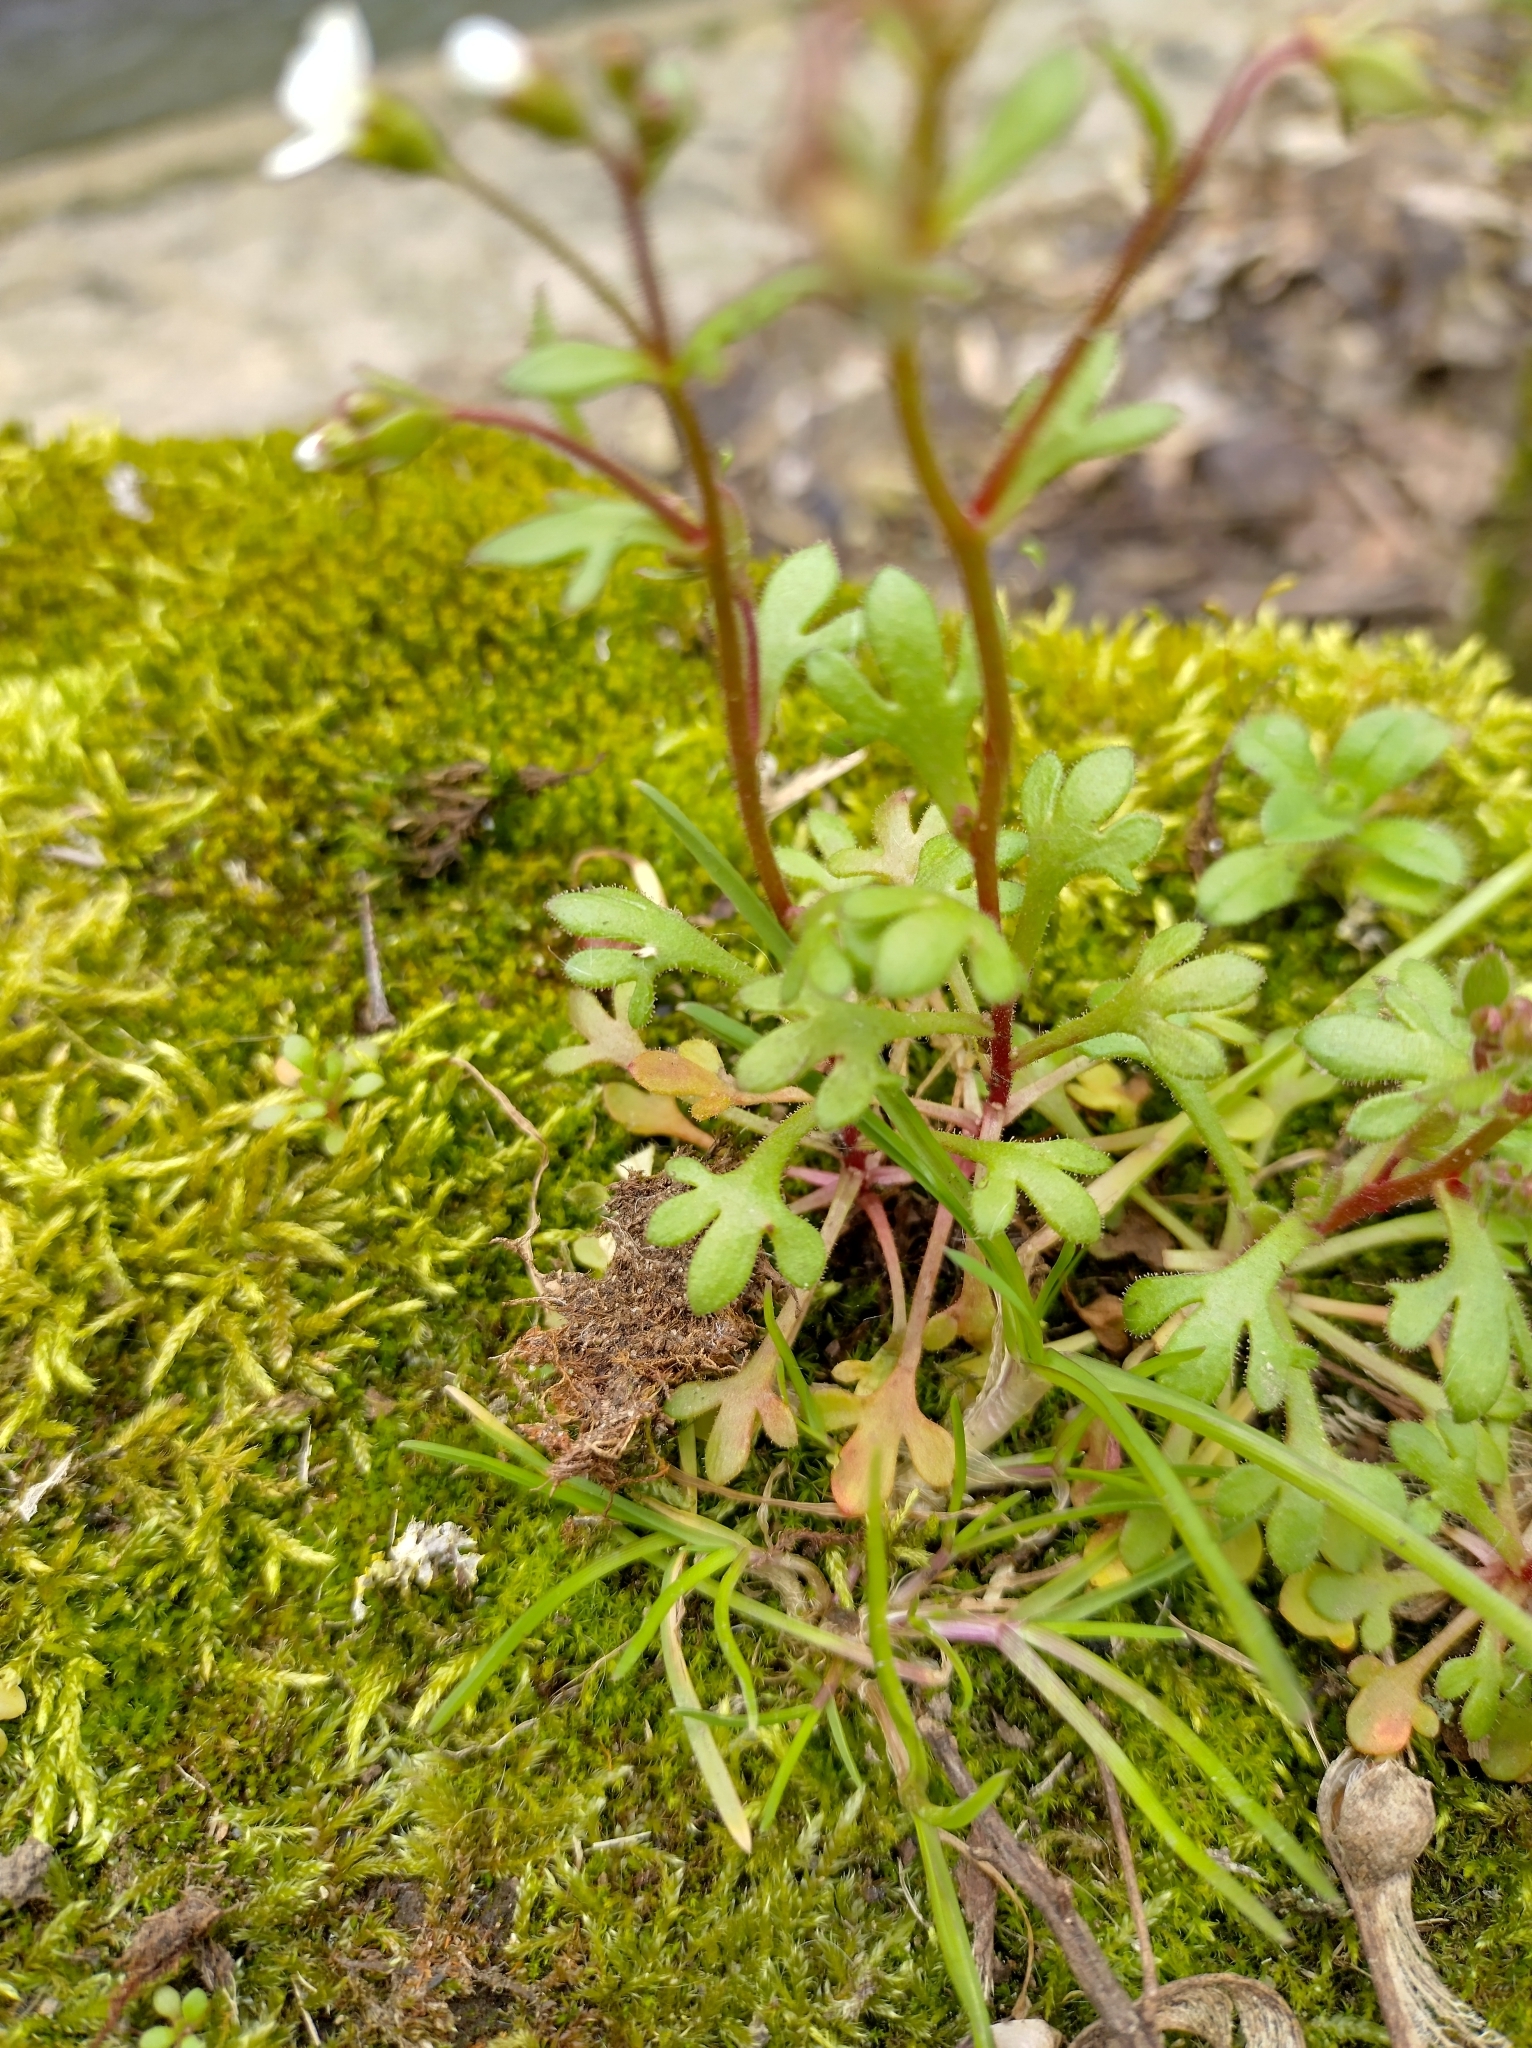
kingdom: Plantae
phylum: Tracheophyta
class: Magnoliopsida
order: Saxifragales
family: Saxifragaceae
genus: Saxifraga
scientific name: Saxifraga tridactylites
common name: Rue-leaved saxifrage
